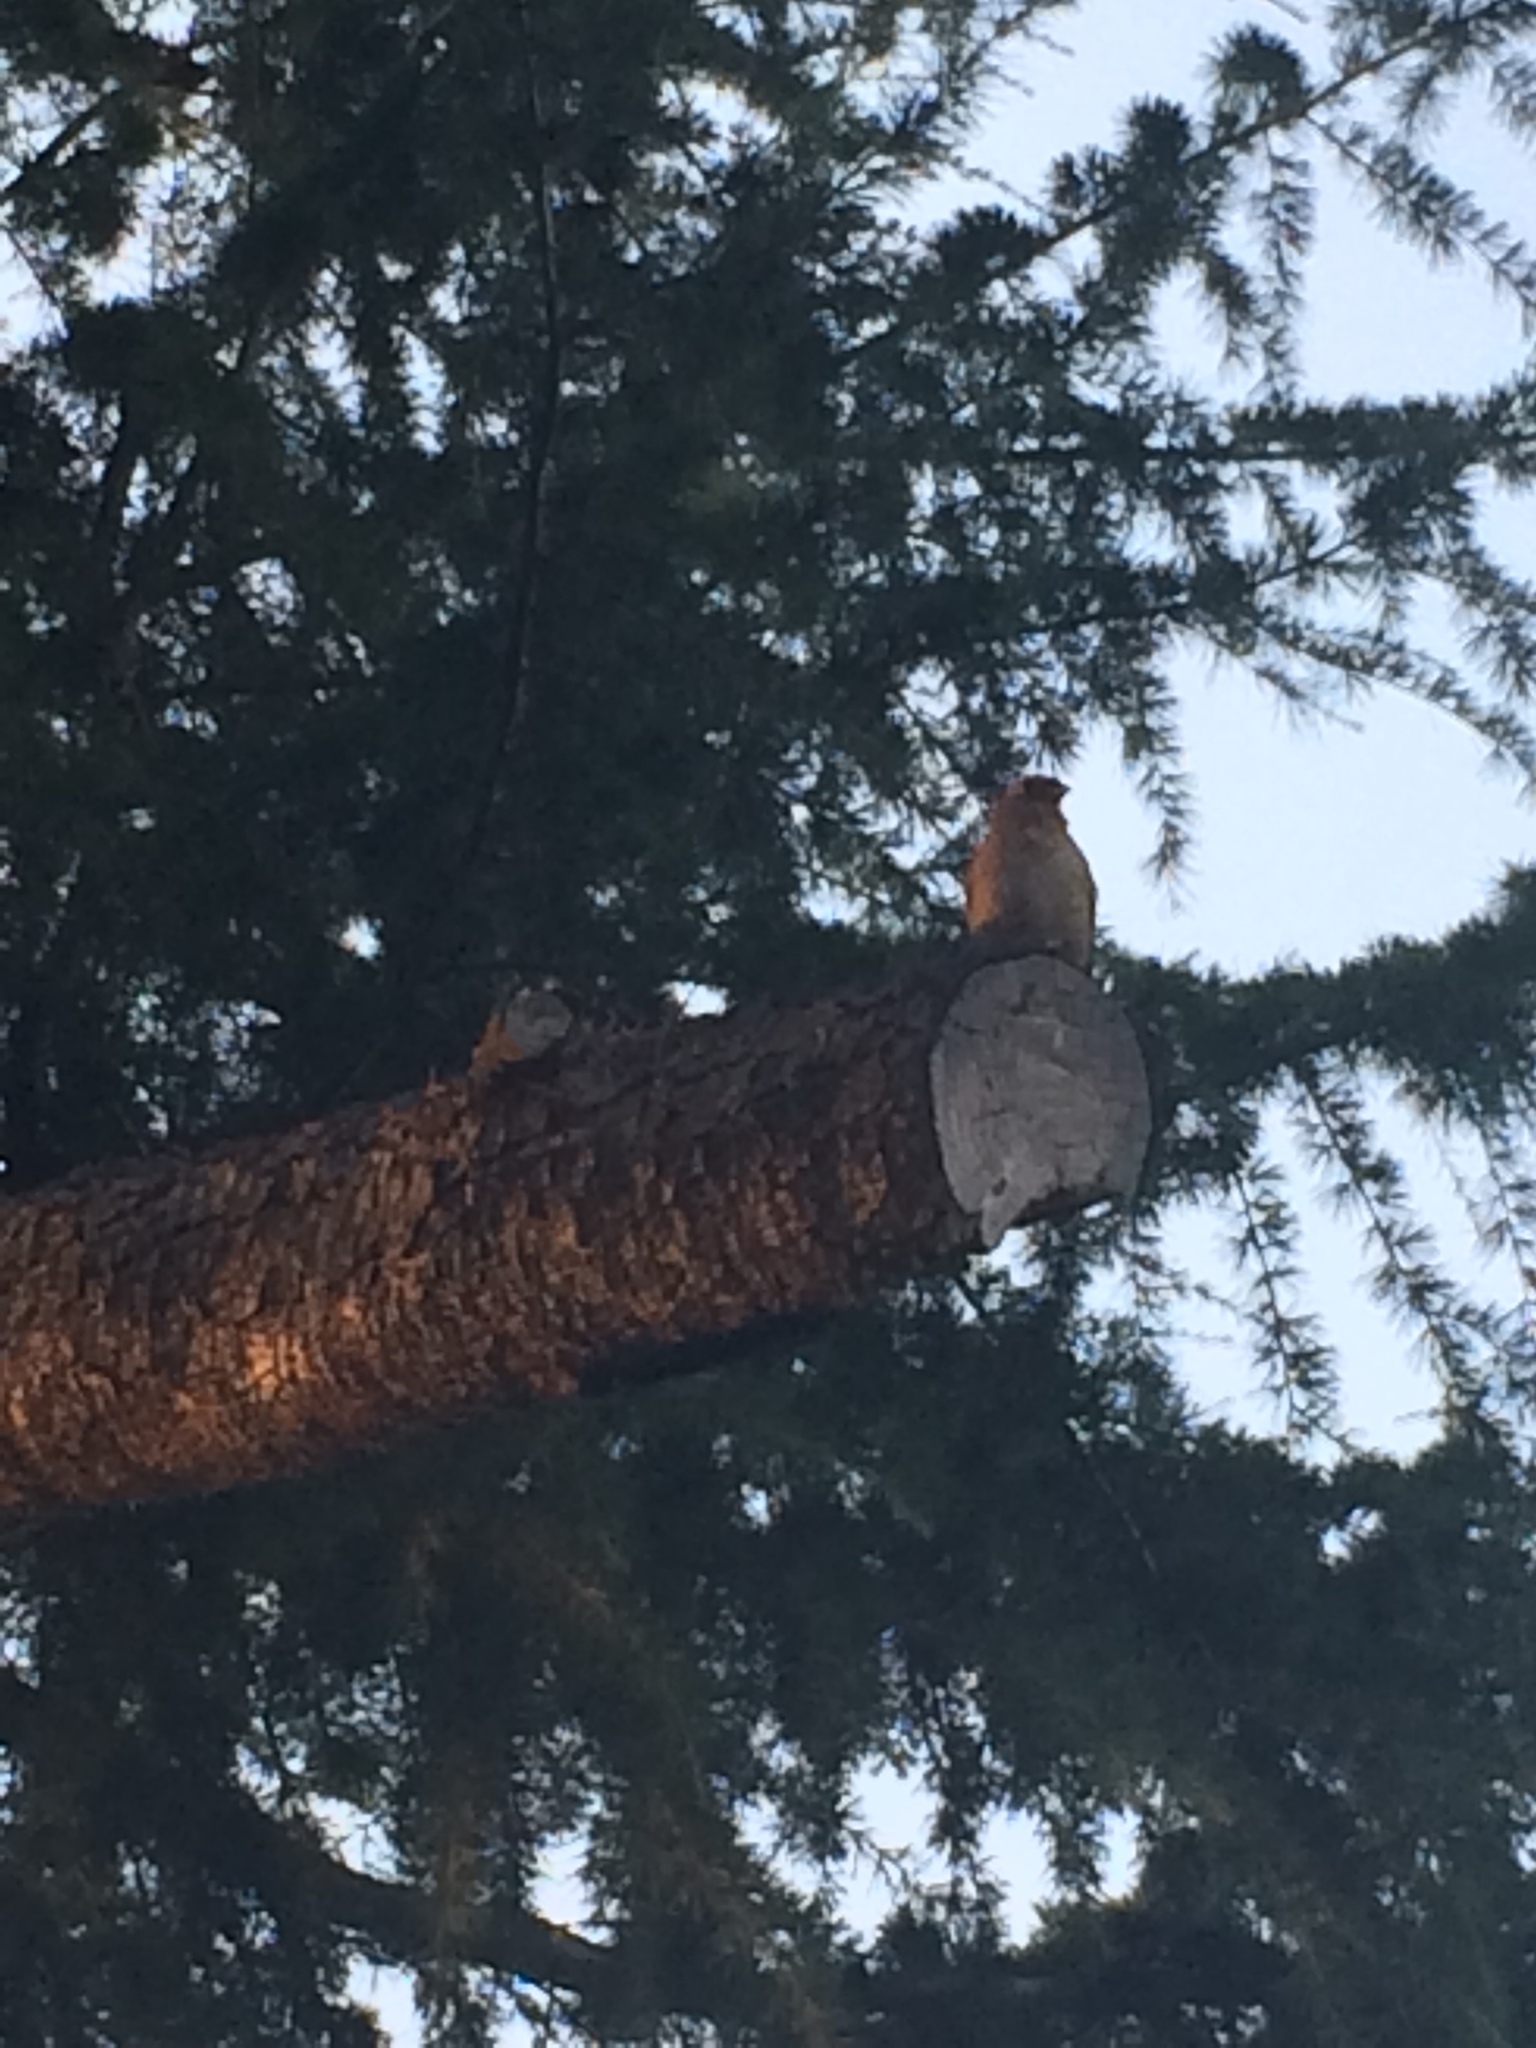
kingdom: Animalia
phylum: Chordata
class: Aves
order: Passeriformes
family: Passerellidae
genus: Melozone
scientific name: Melozone crissalis
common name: California towhee
